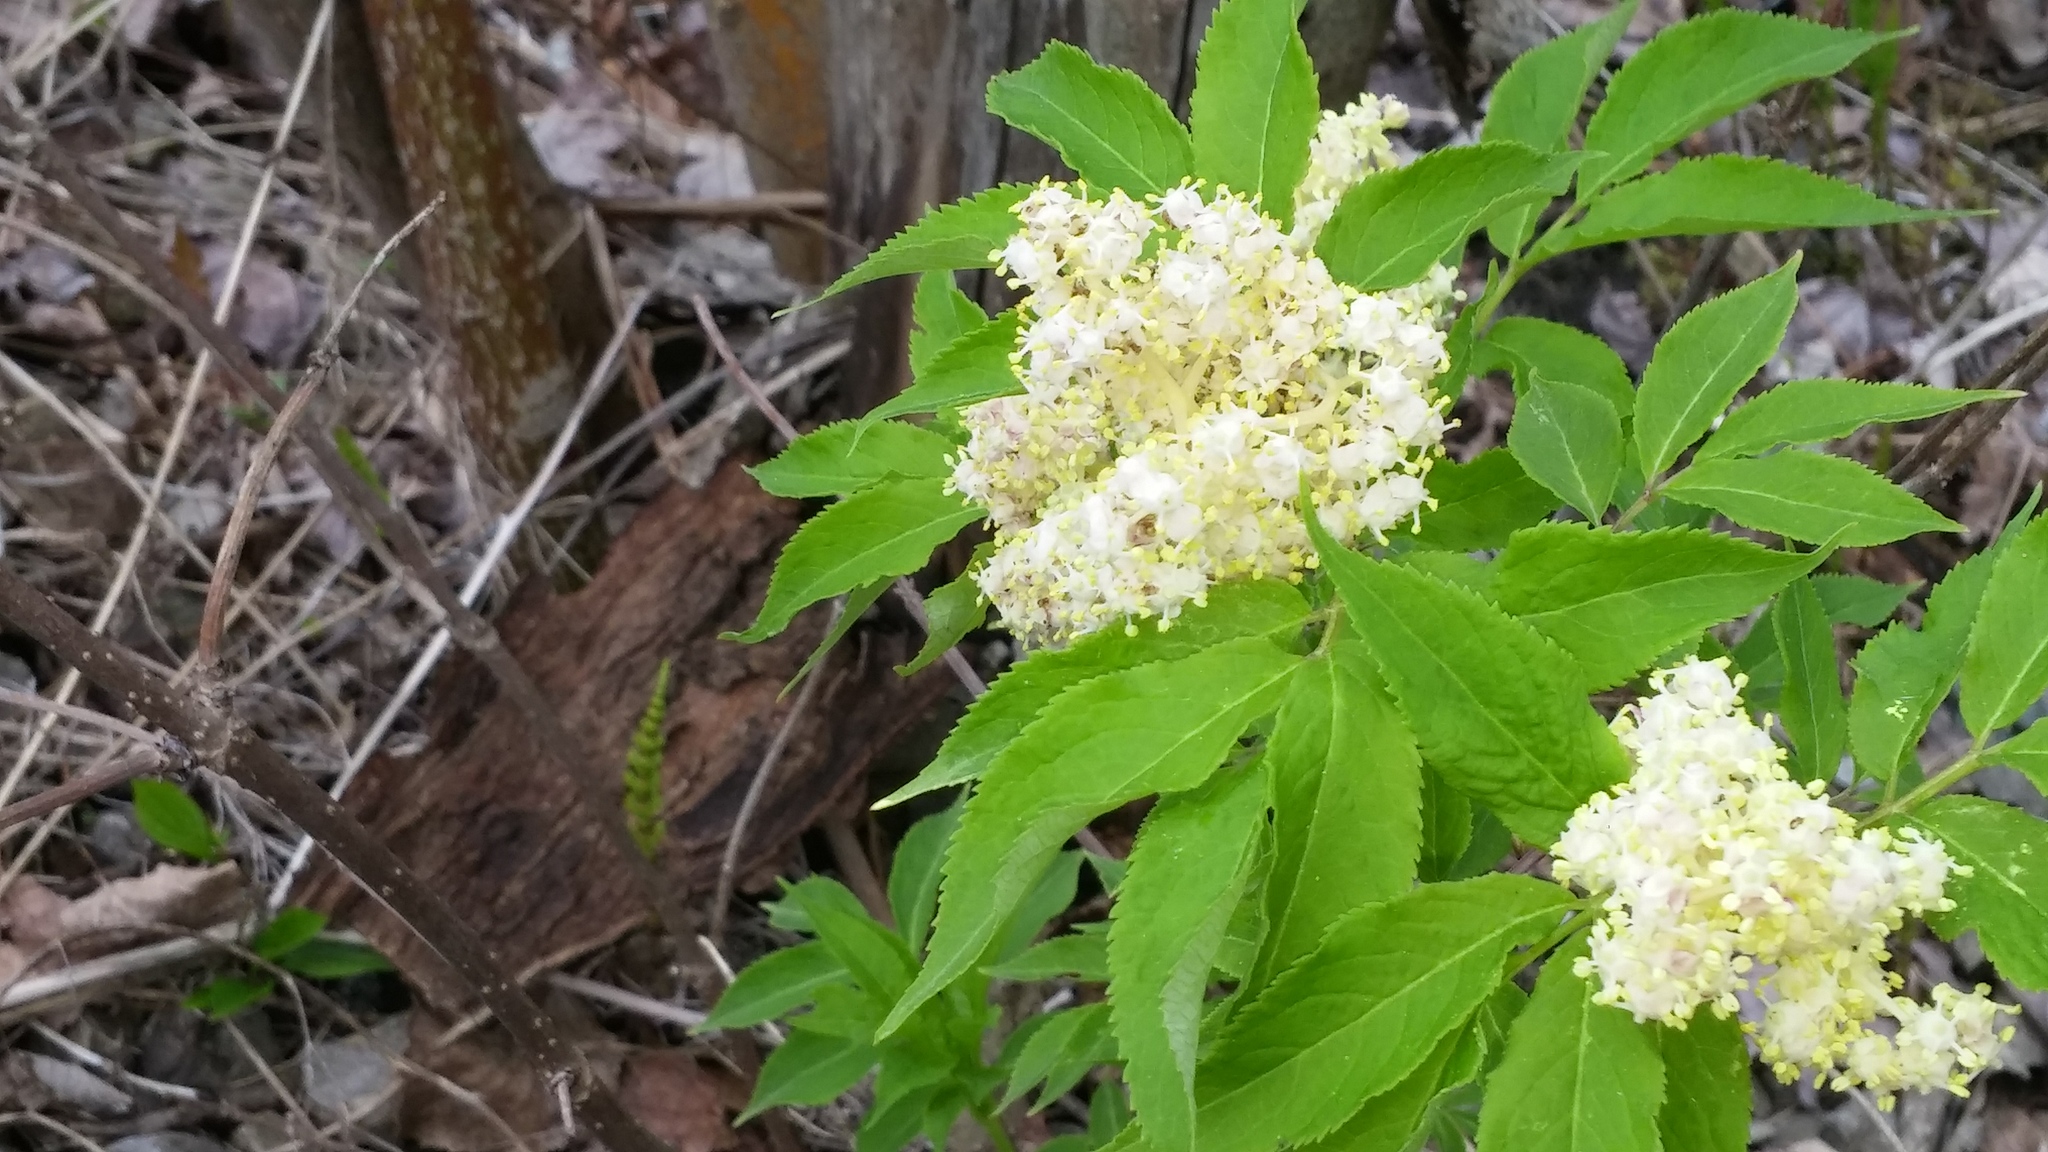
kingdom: Plantae
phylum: Tracheophyta
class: Magnoliopsida
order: Dipsacales
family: Viburnaceae
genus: Sambucus
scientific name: Sambucus racemosa
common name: Red-berried elder
